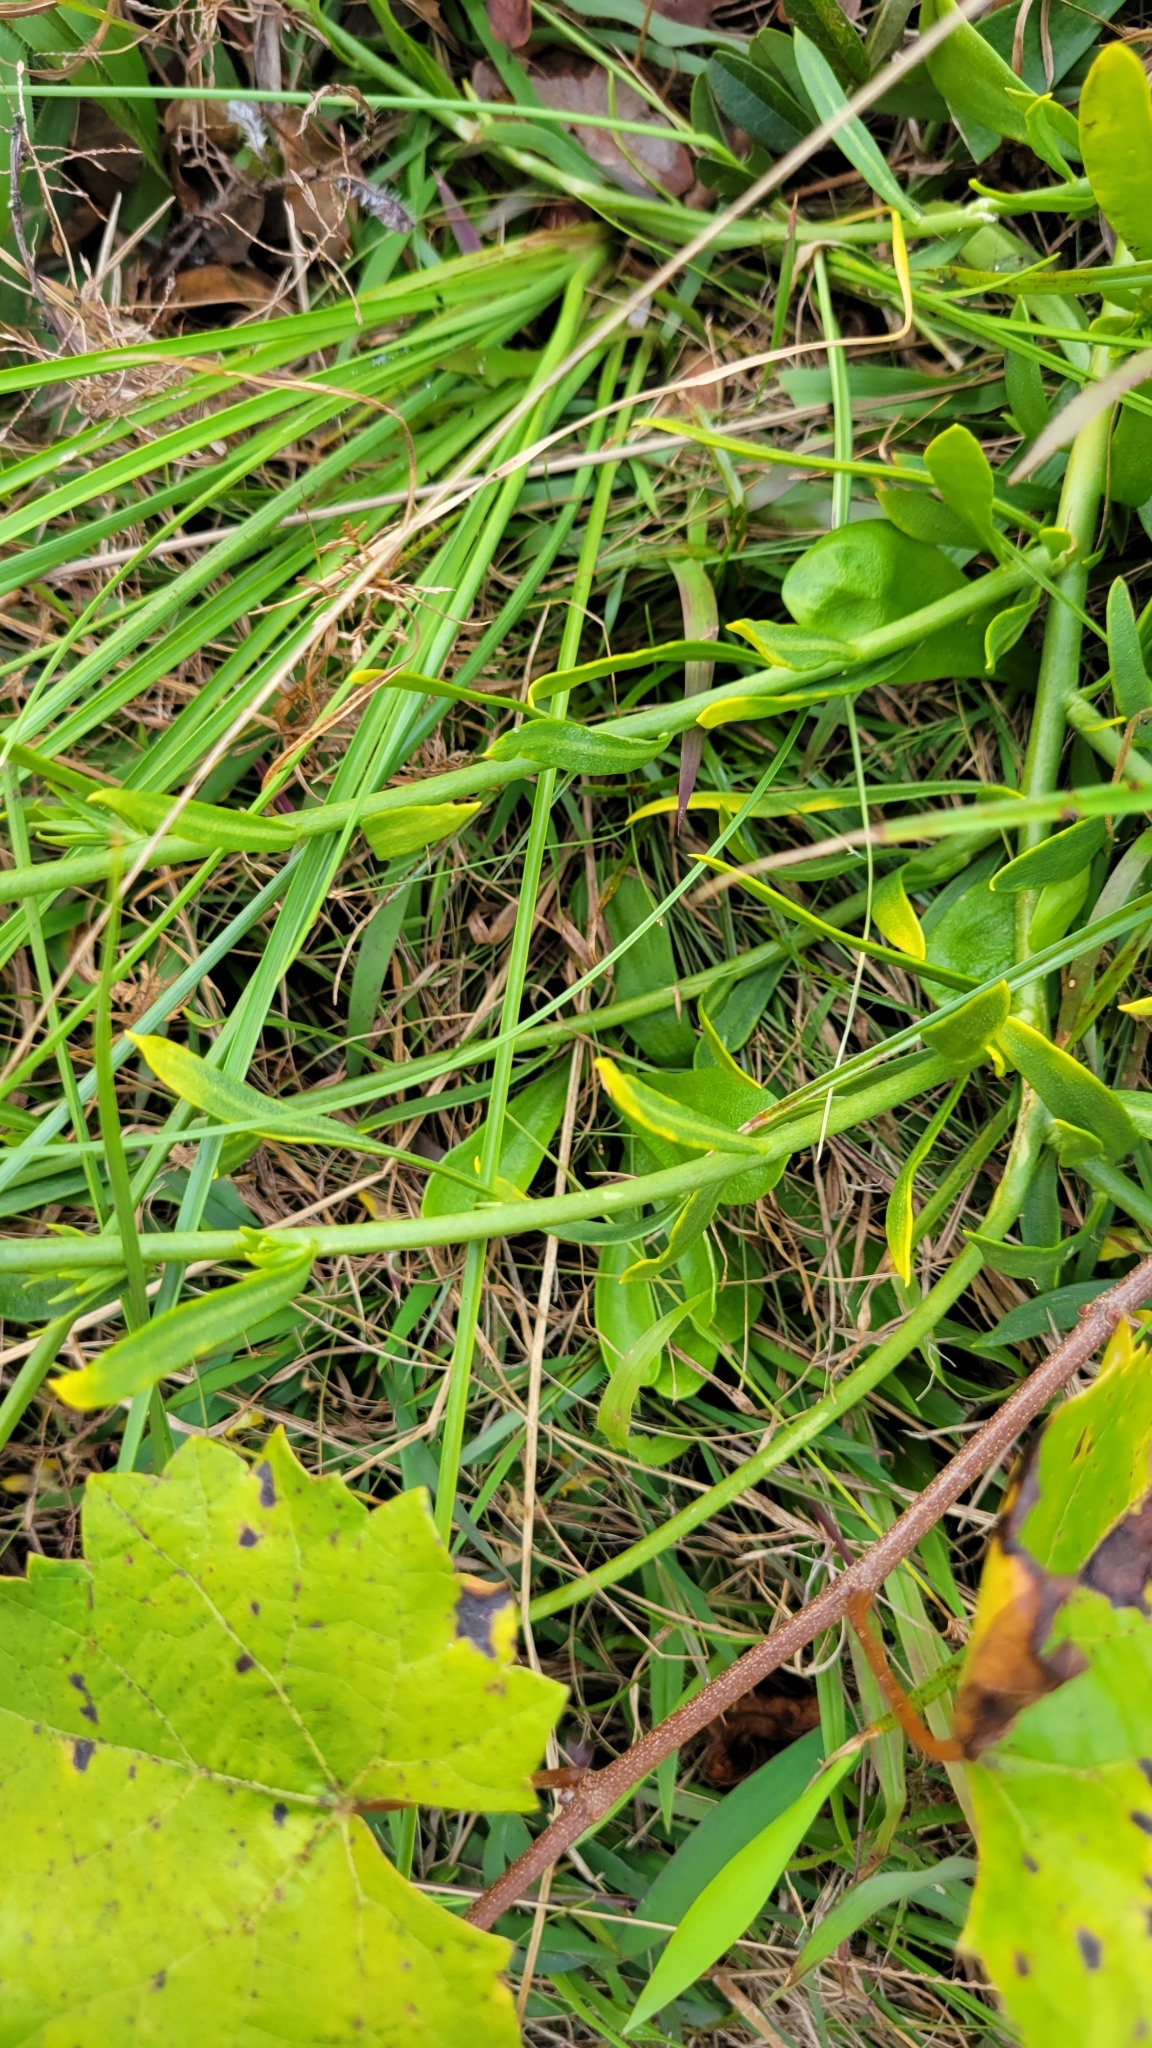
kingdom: Plantae
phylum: Tracheophyta
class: Magnoliopsida
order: Fabales
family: Polygalaceae
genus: Polygala
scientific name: Polygala rugelii
